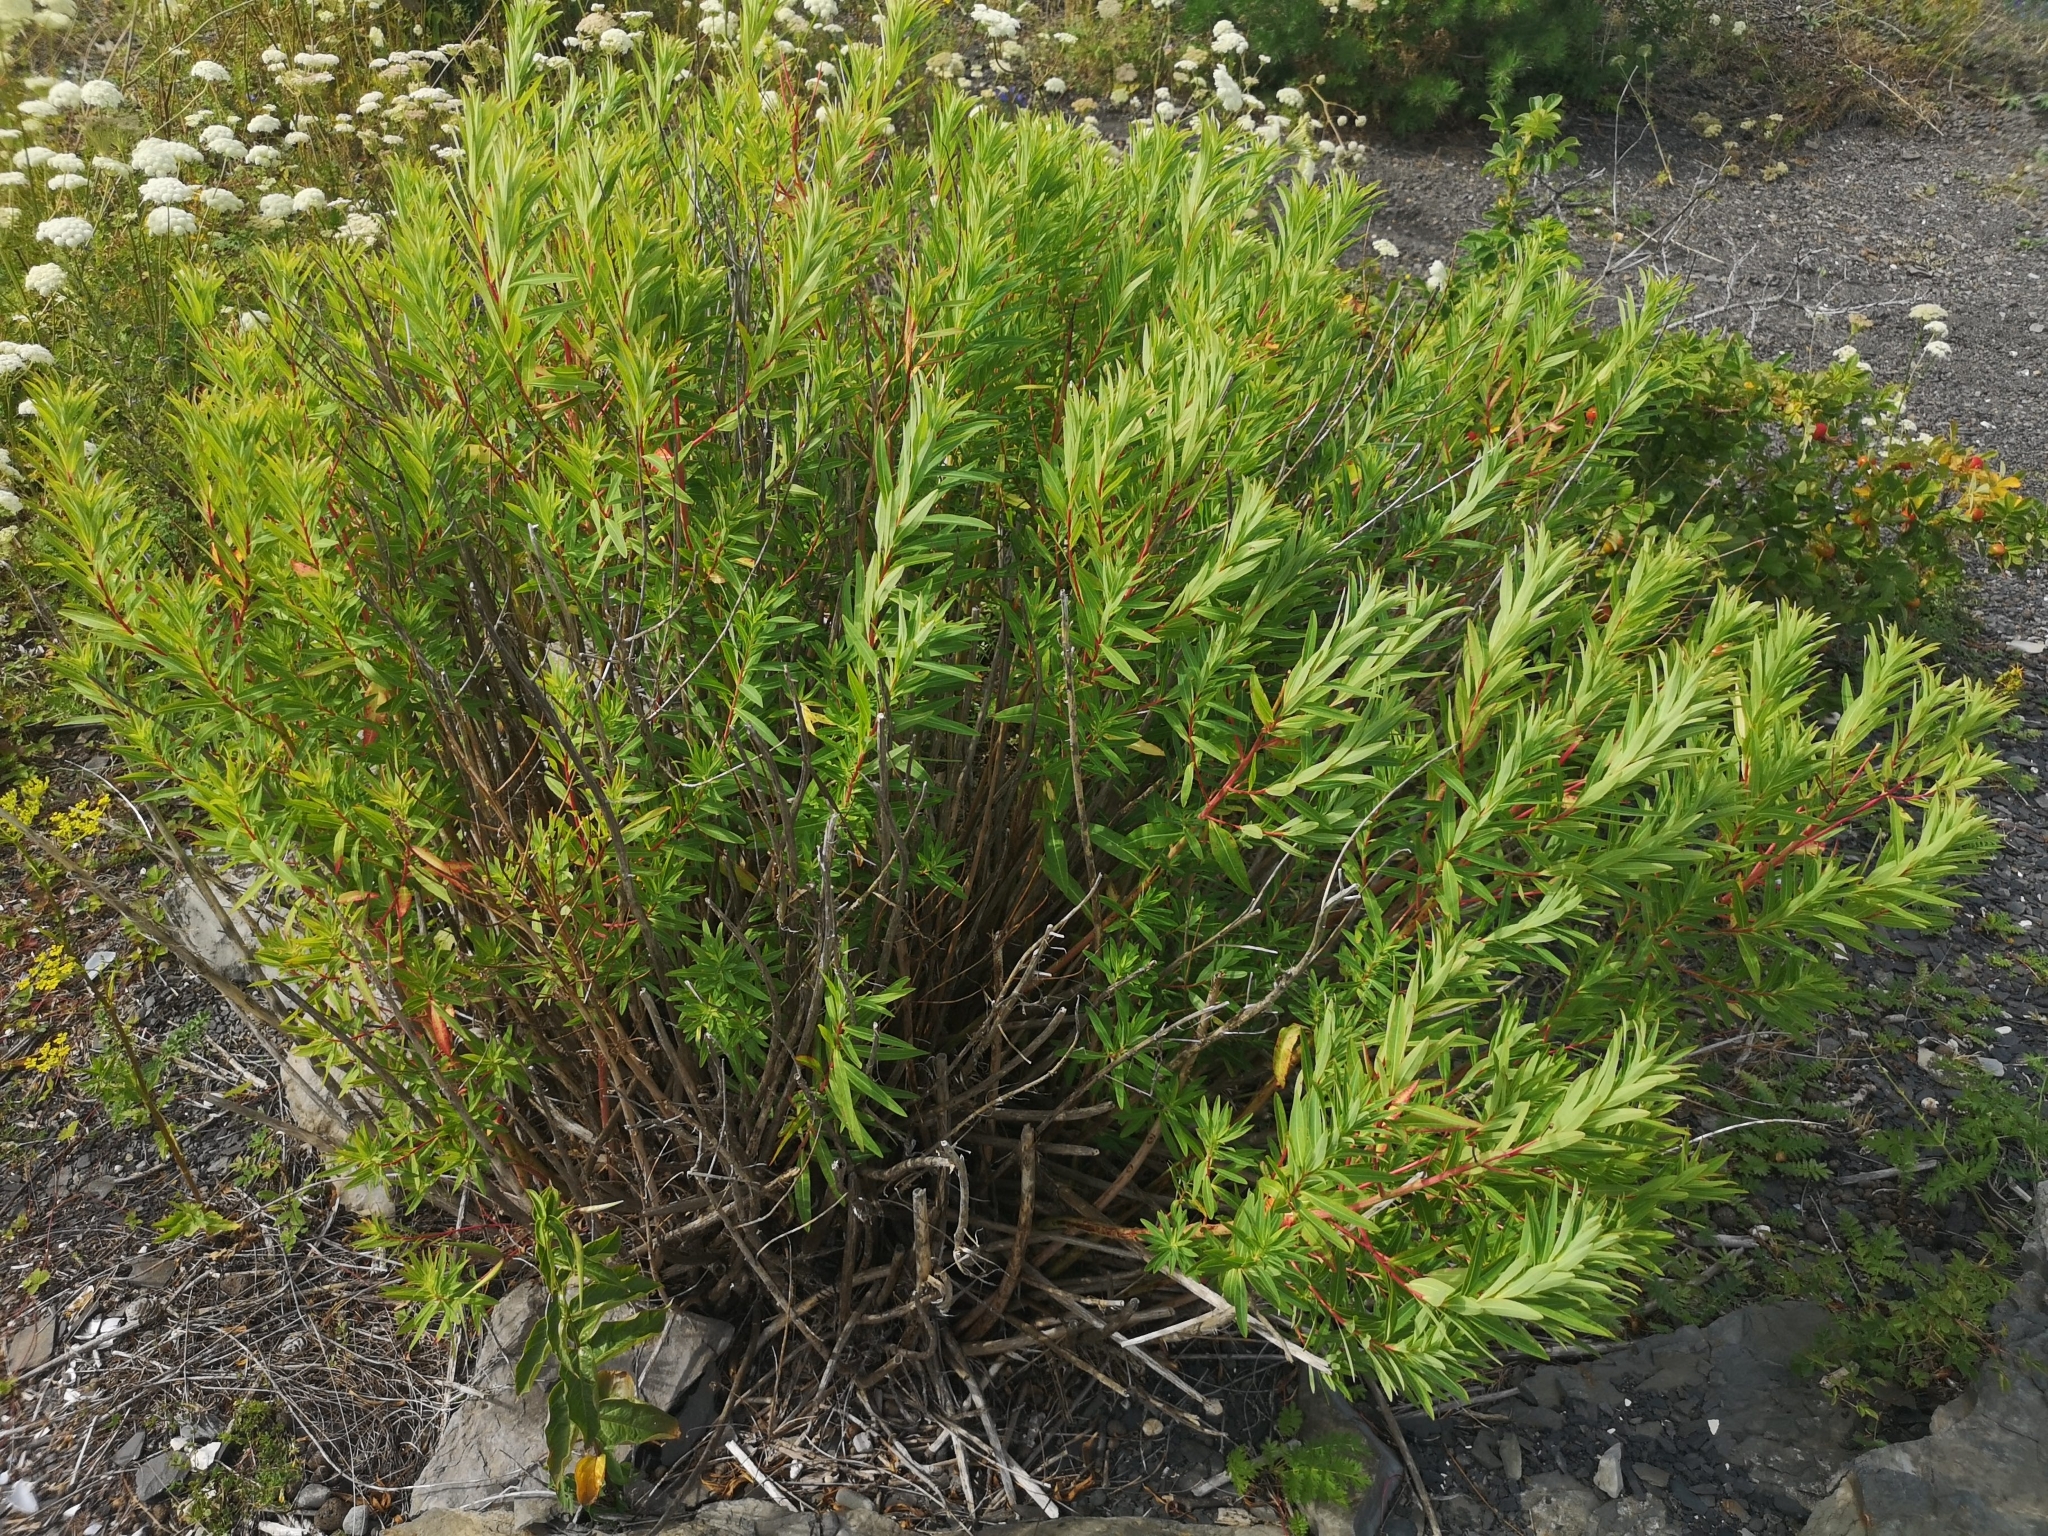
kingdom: Plantae
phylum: Tracheophyta
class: Magnoliopsida
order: Malpighiales
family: Euphorbiaceae
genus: Euphorbia
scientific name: Euphorbia palustris
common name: Marsh spurge
